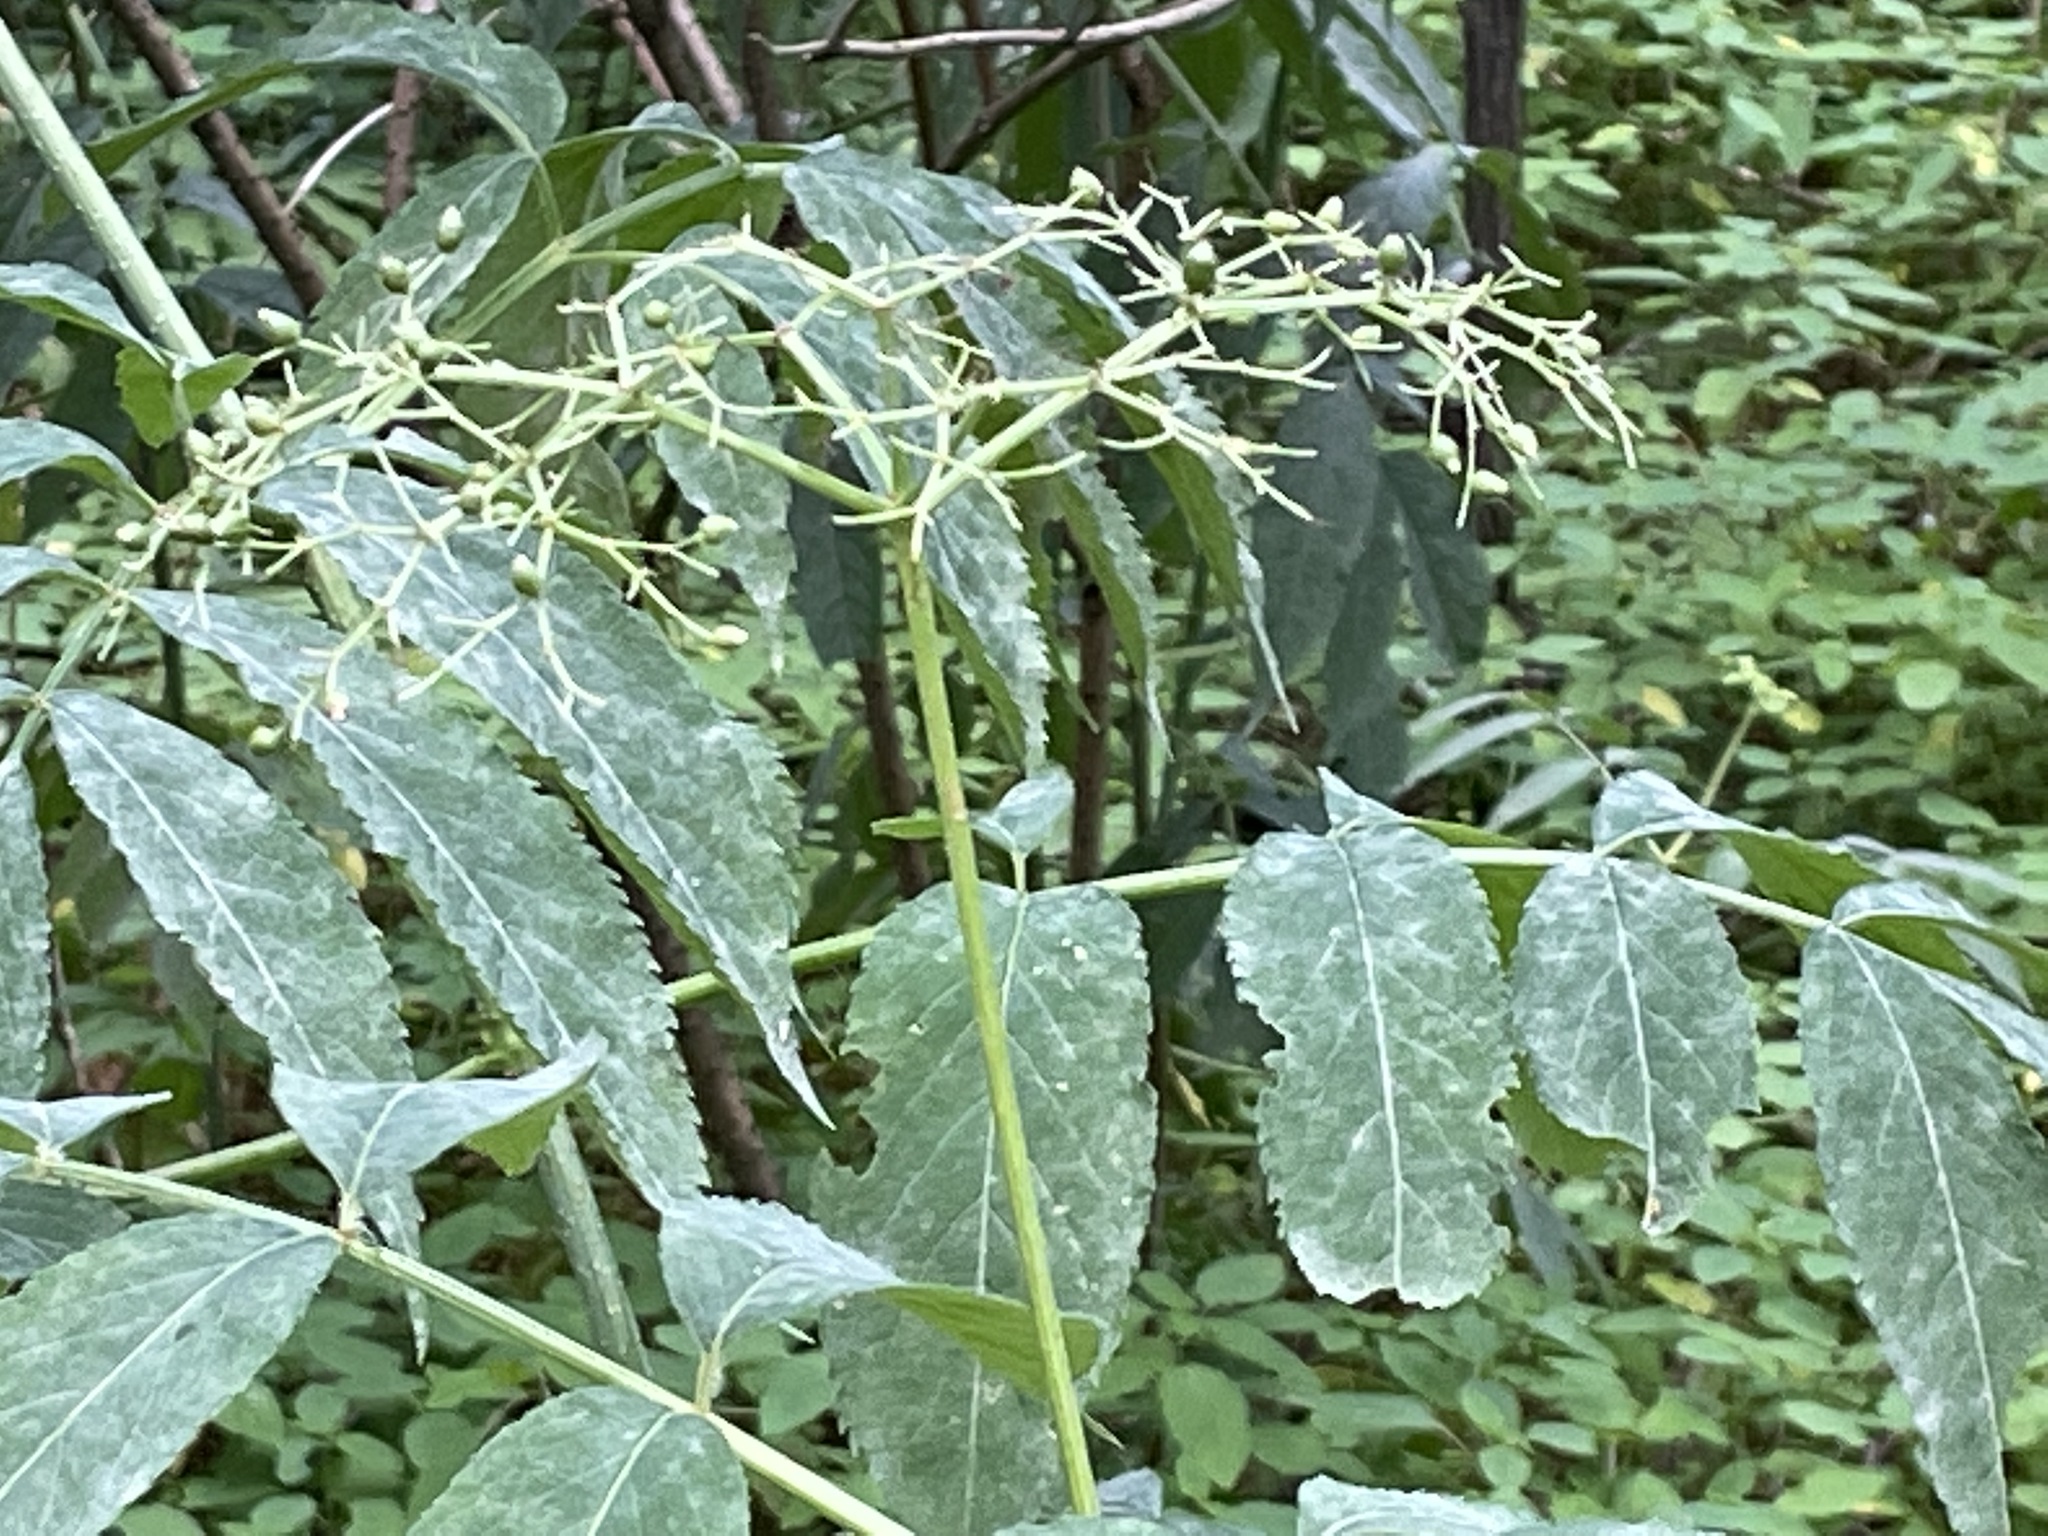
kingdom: Plantae
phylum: Tracheophyta
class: Magnoliopsida
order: Dipsacales
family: Viburnaceae
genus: Sambucus
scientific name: Sambucus canadensis
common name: American elder
